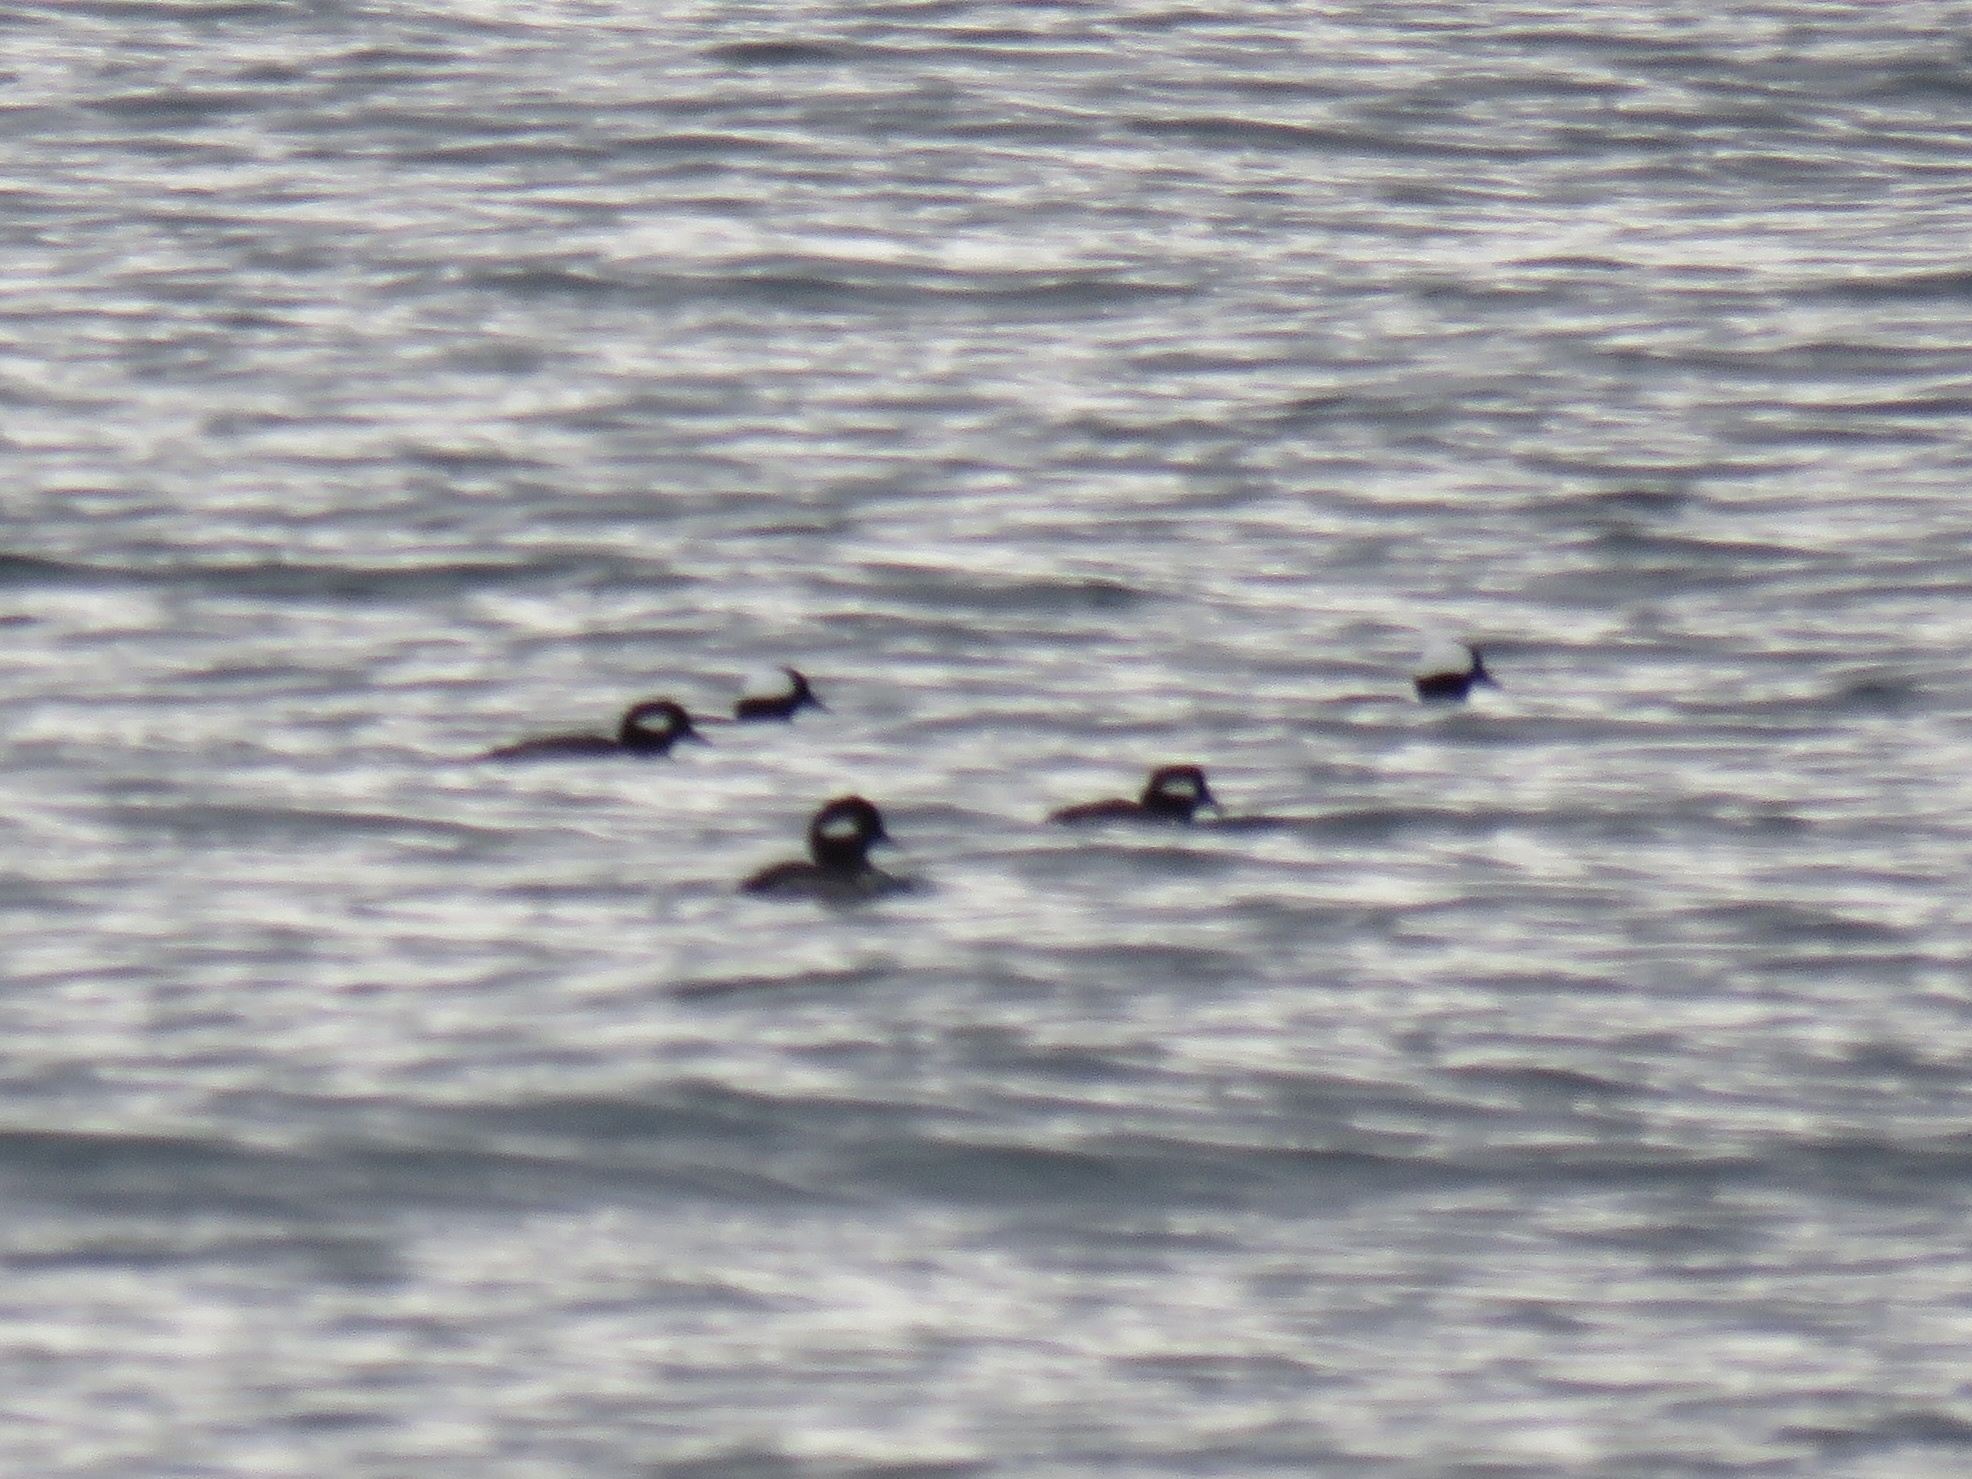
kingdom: Animalia
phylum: Chordata
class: Aves
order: Anseriformes
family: Anatidae
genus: Bucephala
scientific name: Bucephala albeola
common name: Bufflehead
